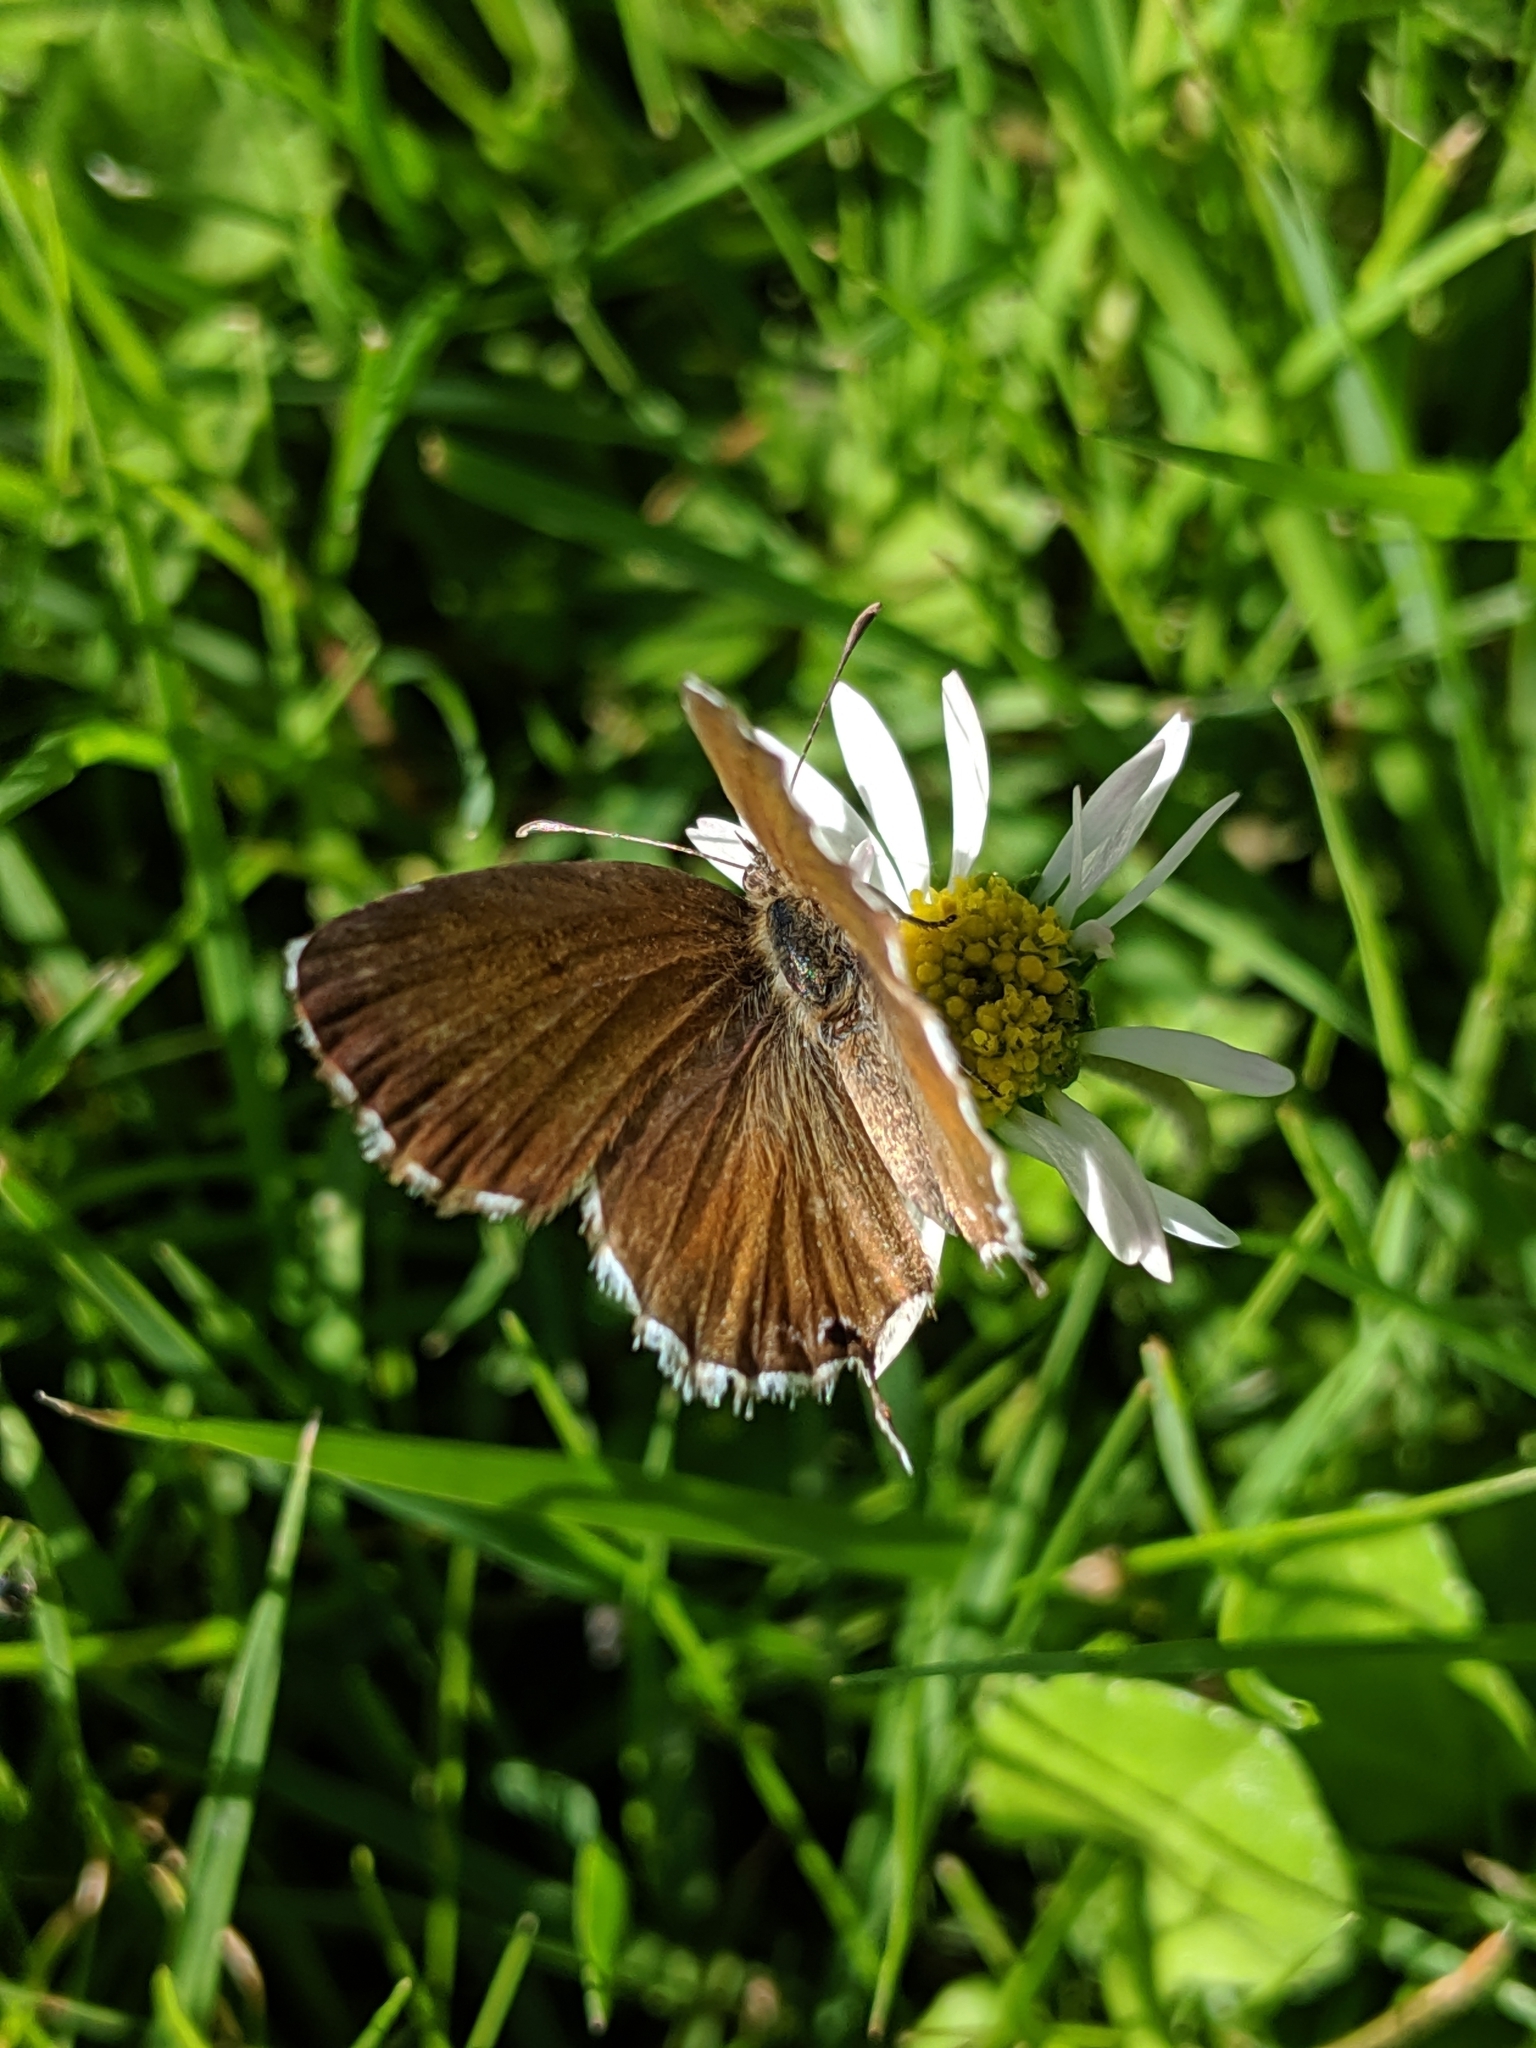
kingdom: Animalia
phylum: Arthropoda
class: Insecta
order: Lepidoptera
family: Lycaenidae
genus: Cacyreus
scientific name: Cacyreus marshalli
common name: Geranium bronze
